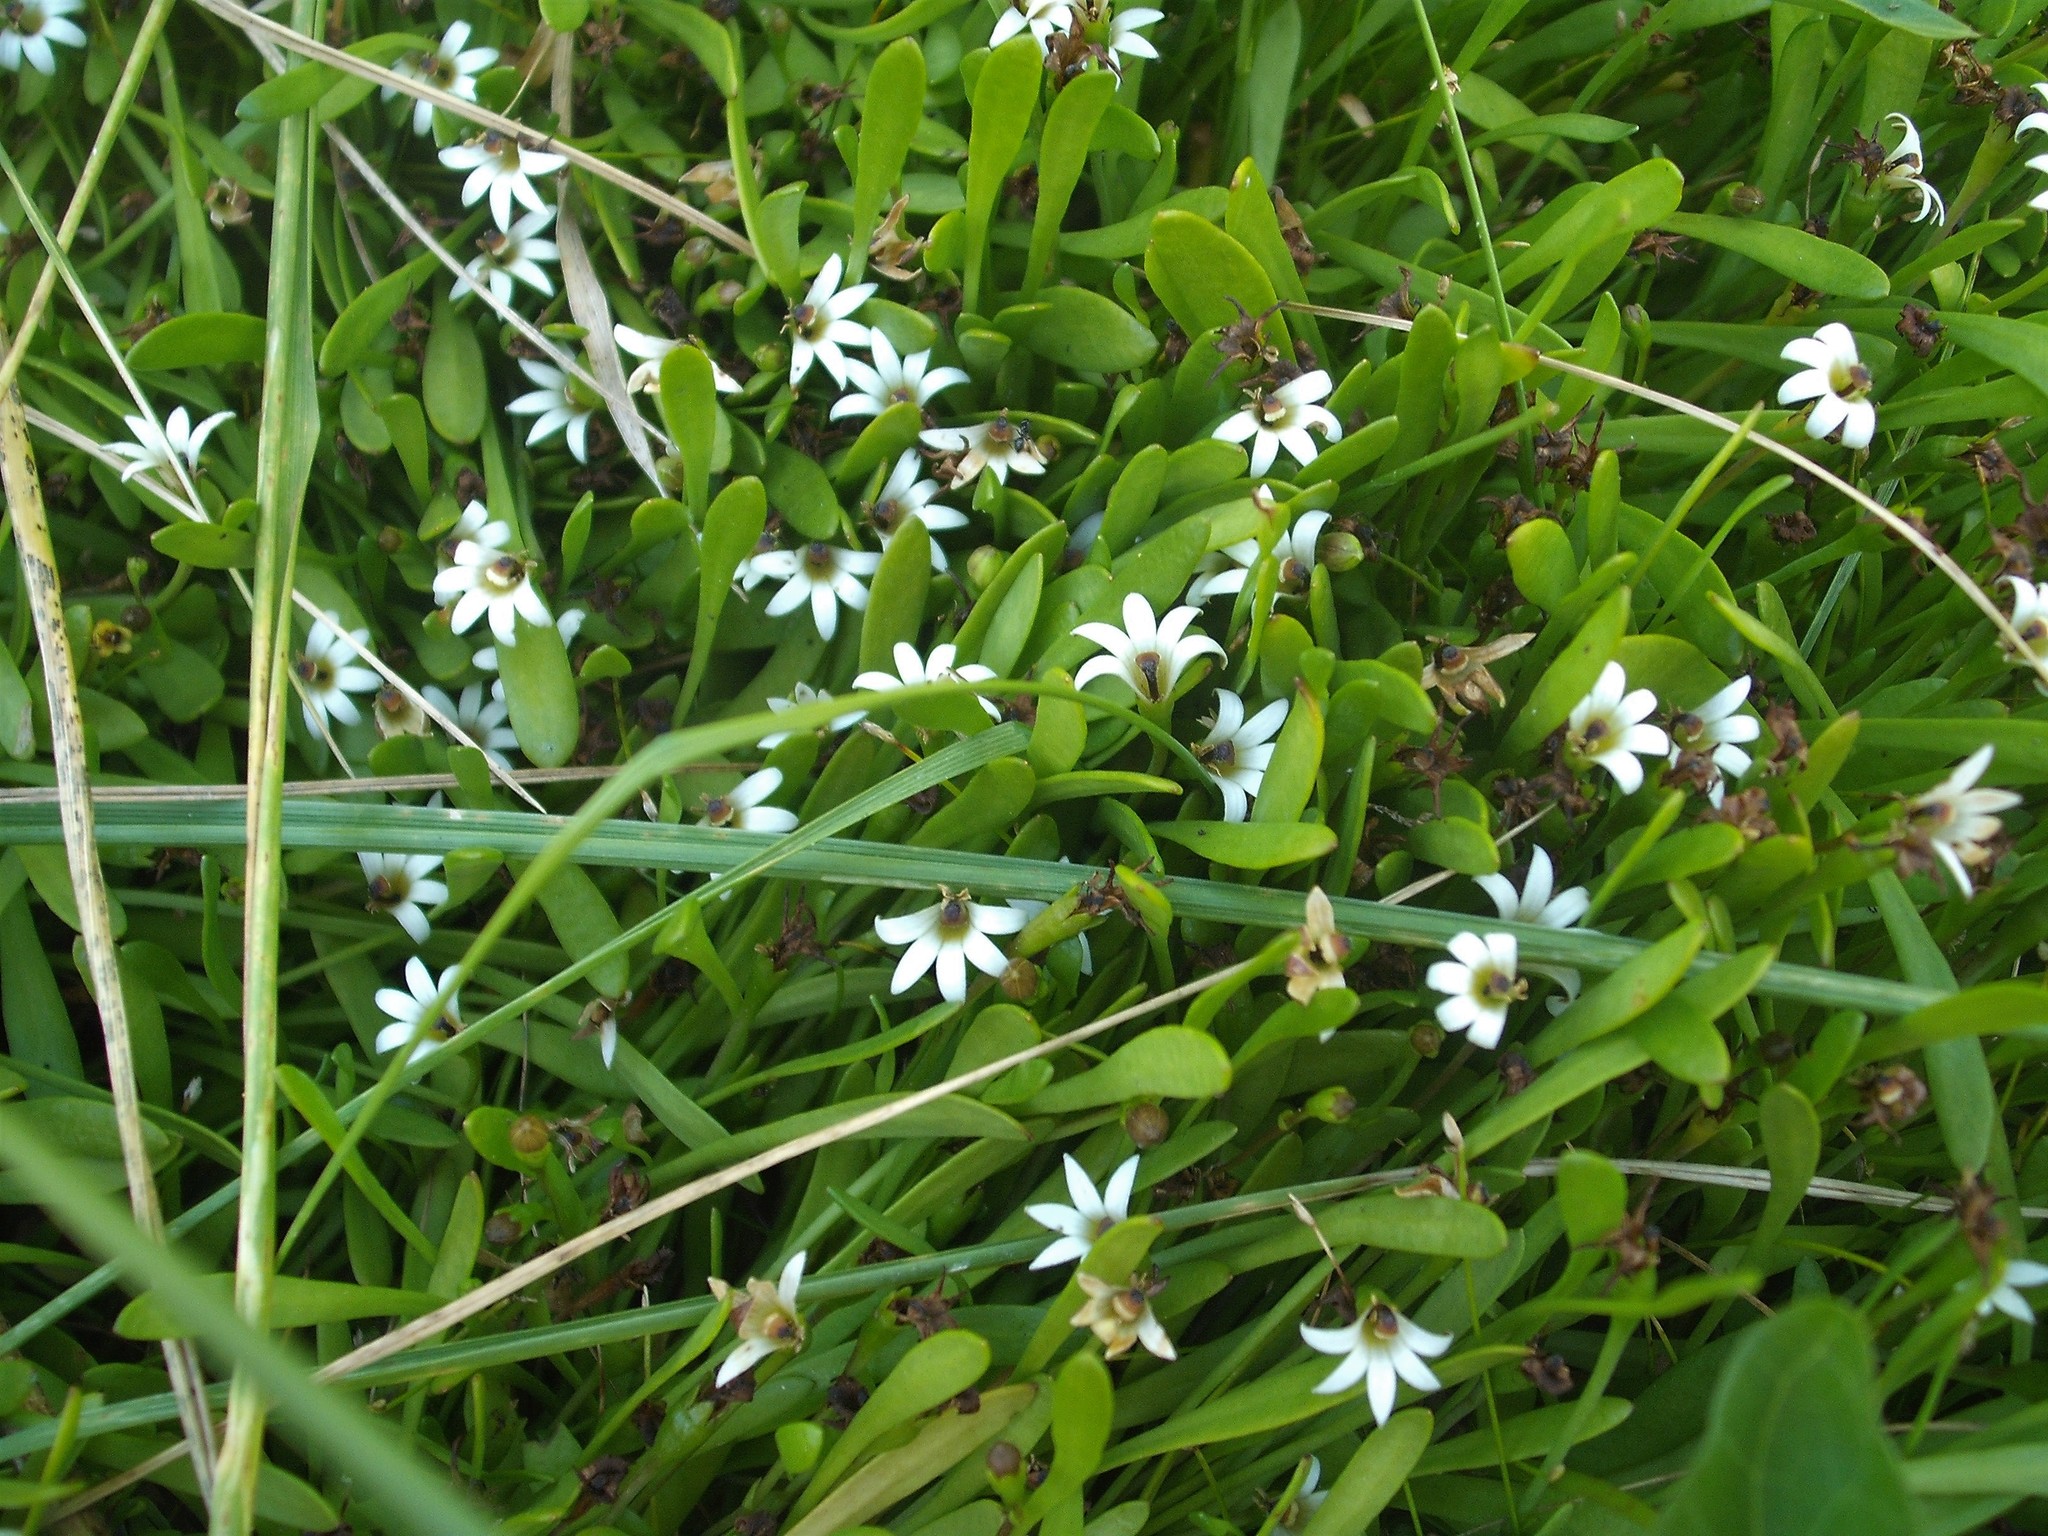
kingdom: Plantae
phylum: Tracheophyta
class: Magnoliopsida
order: Asterales
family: Goodeniaceae
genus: Goodenia
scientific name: Goodenia radicans
